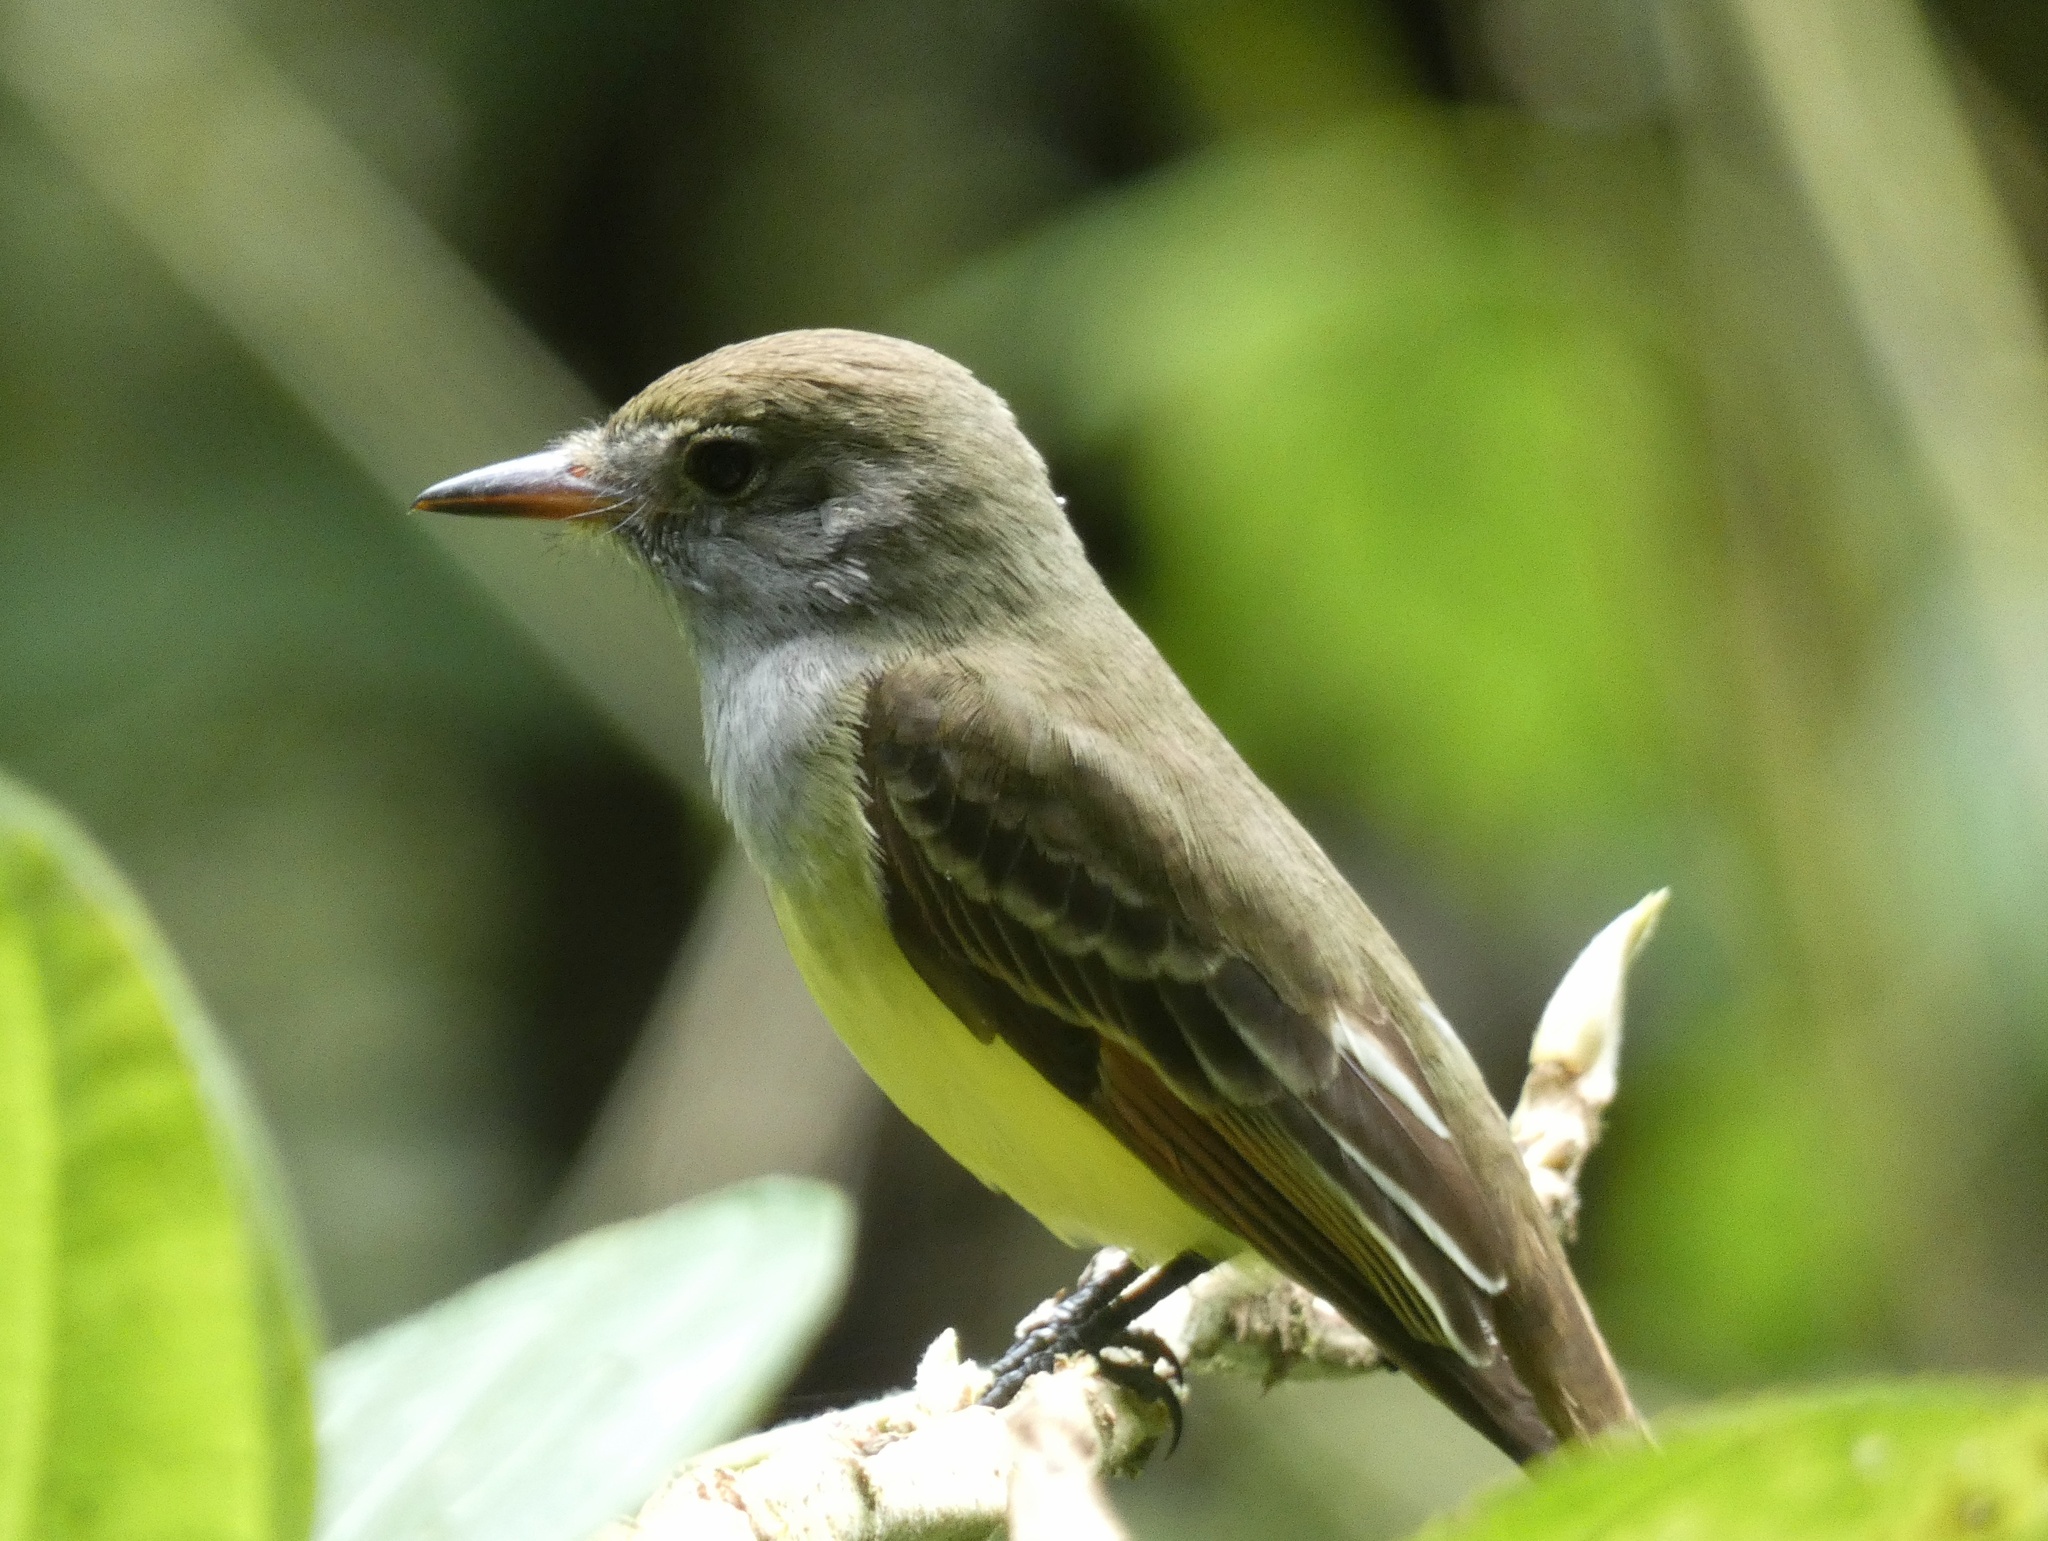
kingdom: Animalia
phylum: Chordata
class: Aves
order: Passeriformes
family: Tyrannidae
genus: Myiarchus
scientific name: Myiarchus crinitus
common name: Great crested flycatcher
